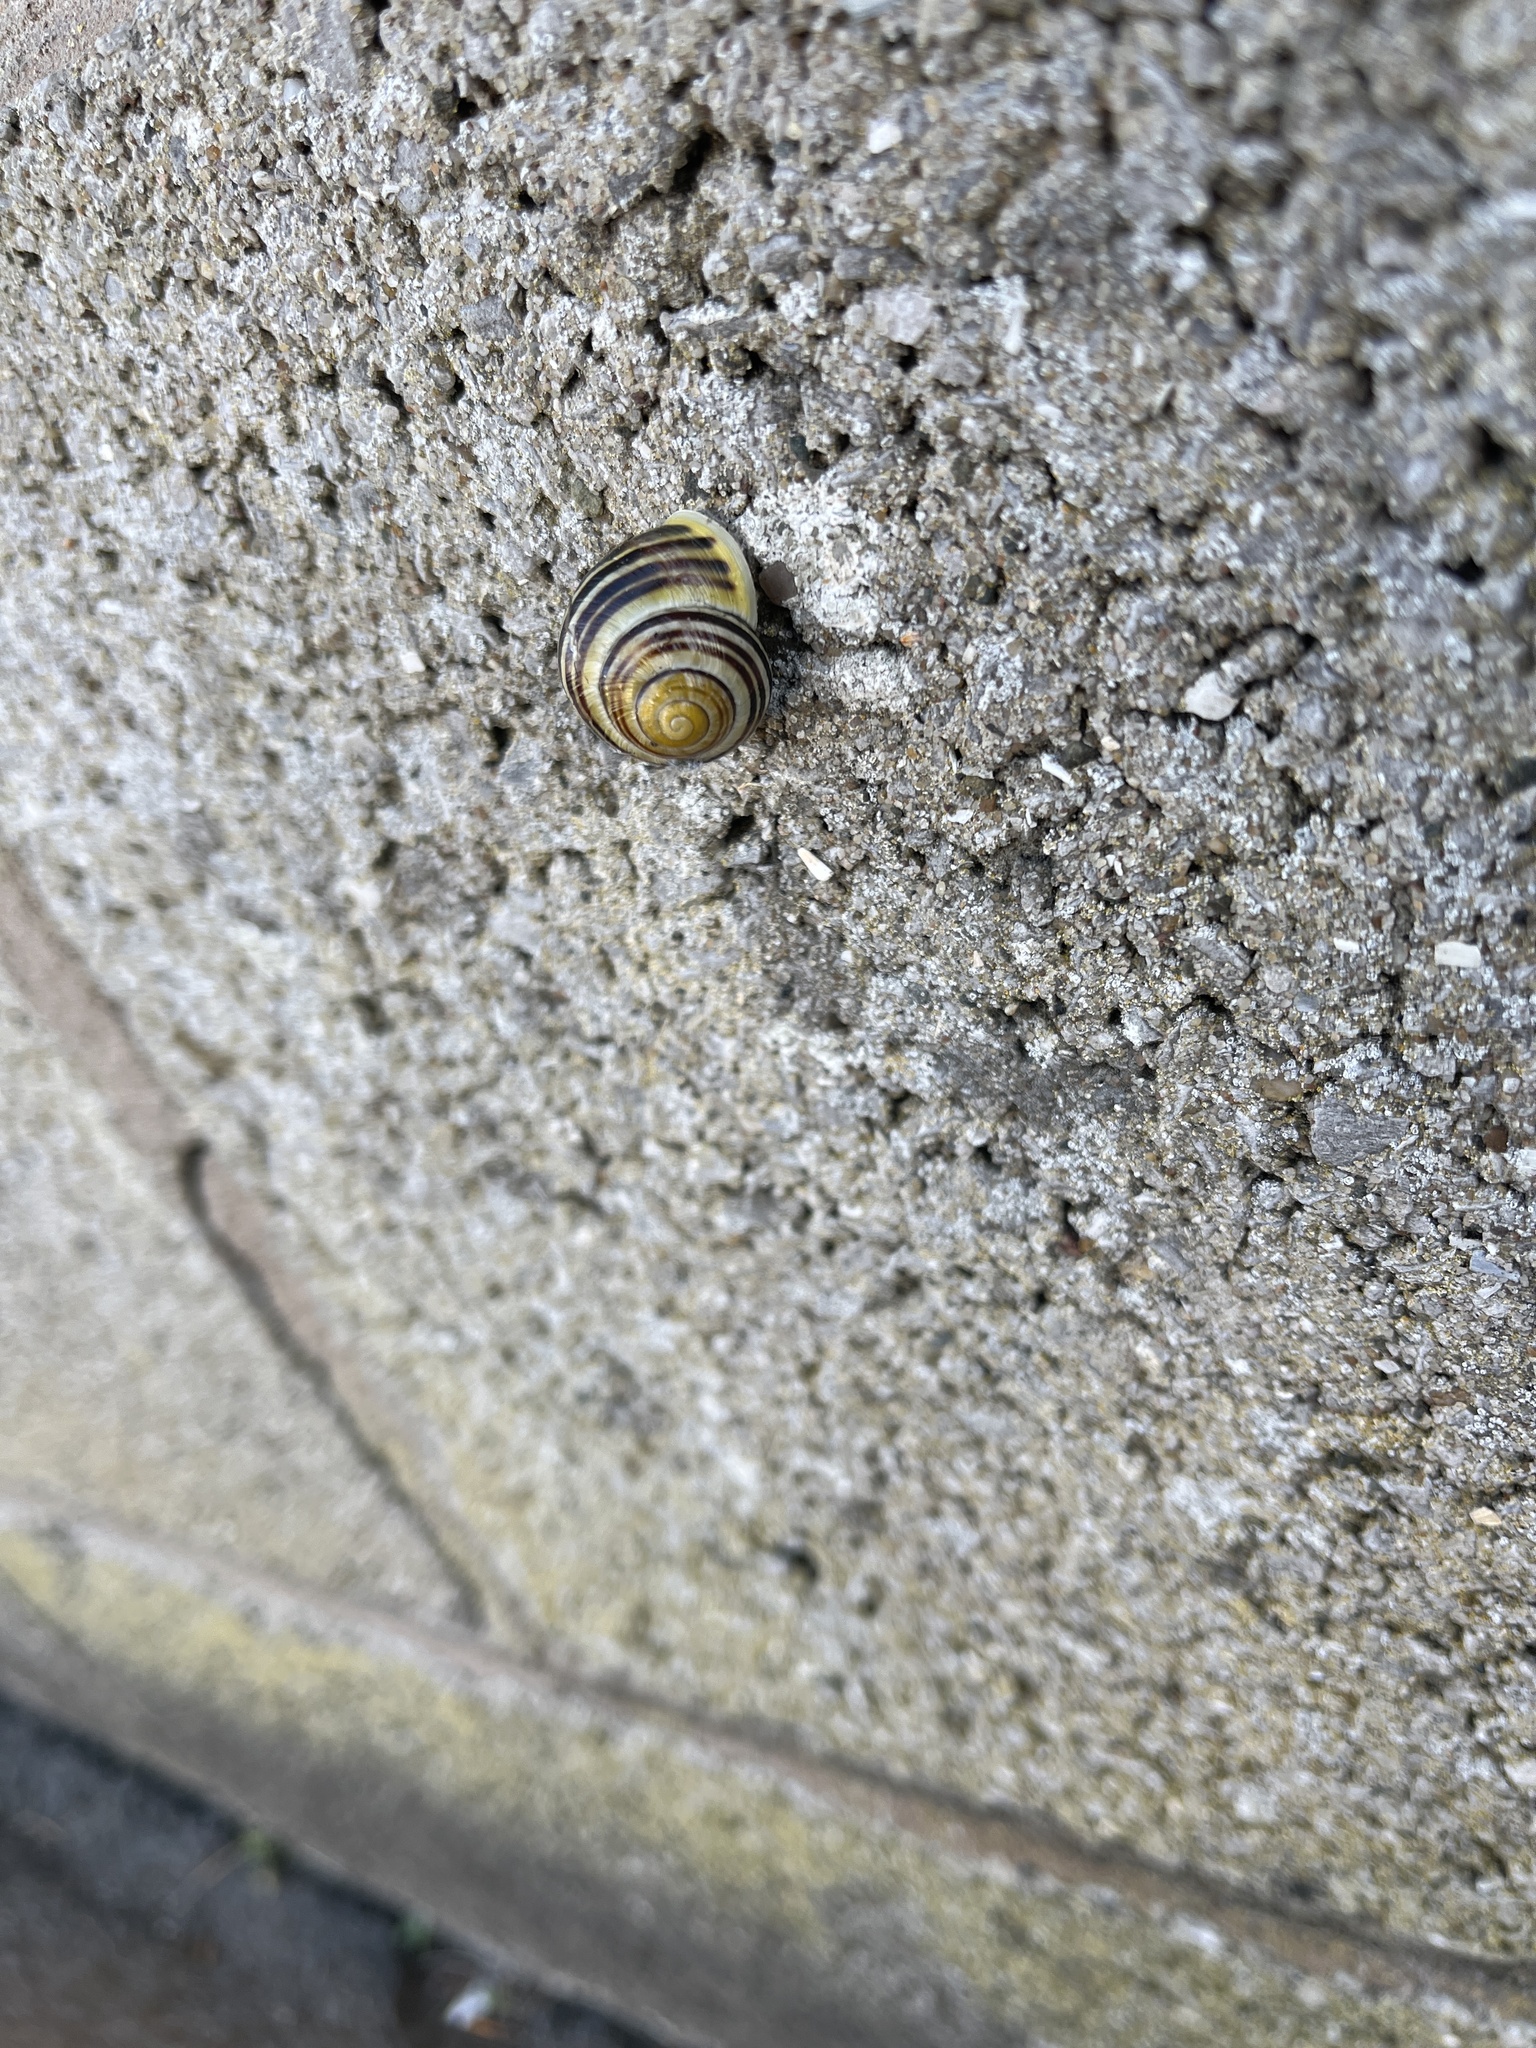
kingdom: Animalia
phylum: Mollusca
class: Gastropoda
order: Stylommatophora
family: Helicidae
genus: Cepaea
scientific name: Cepaea hortensis
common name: White-lip gardensnail
